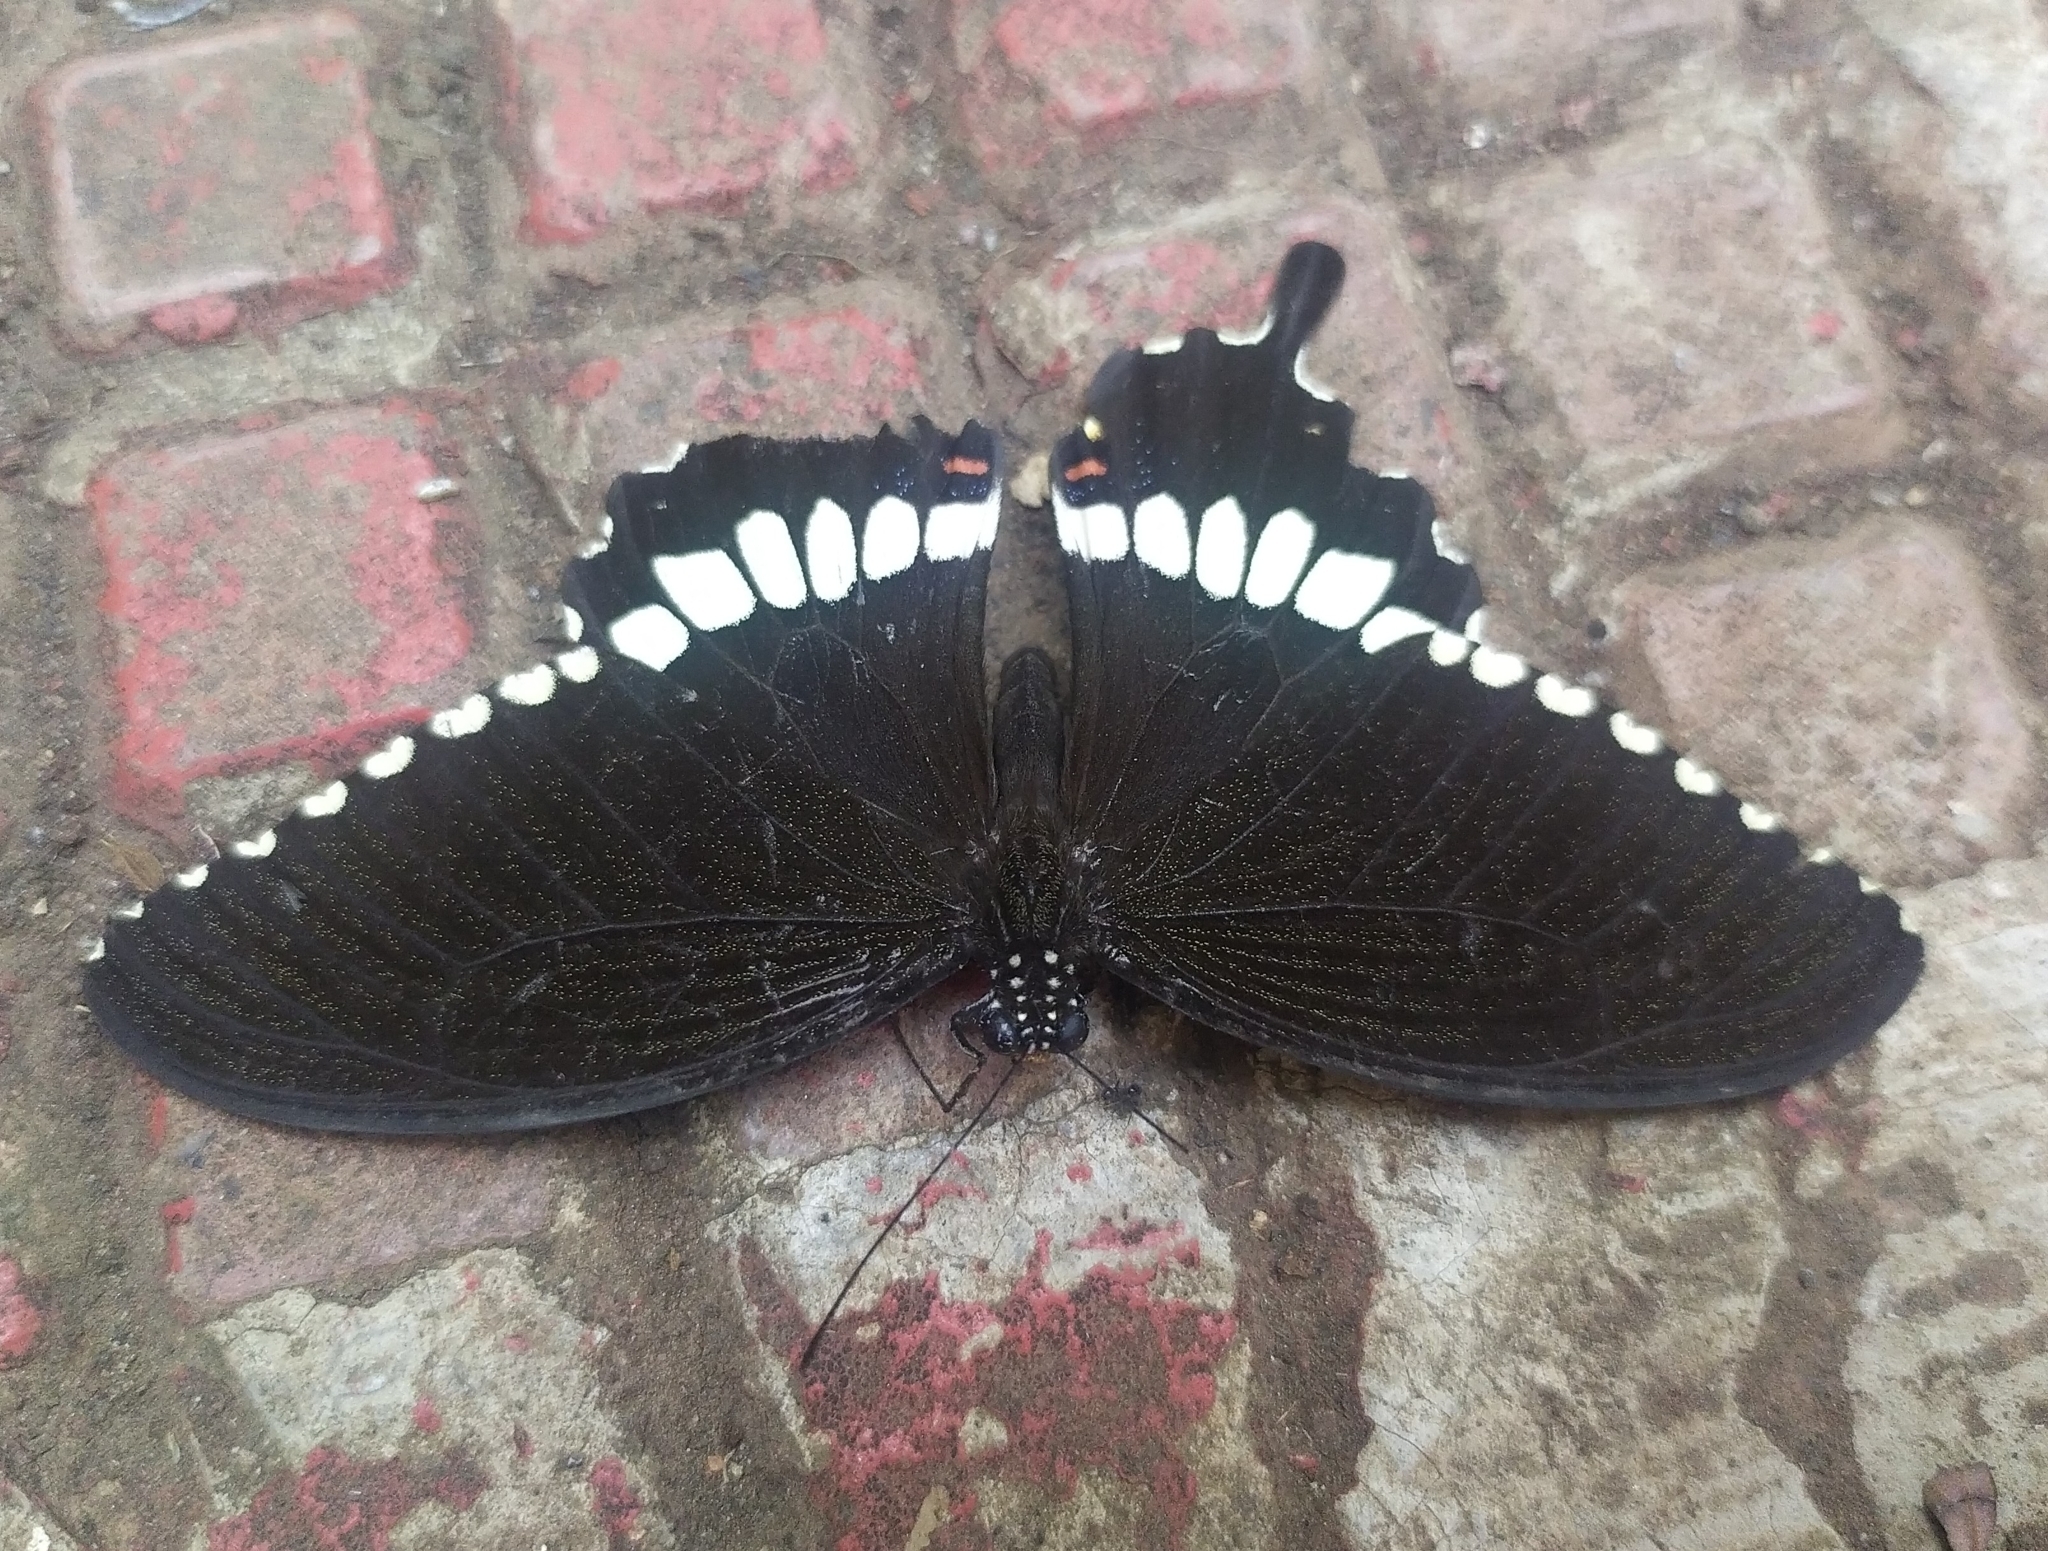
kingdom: Animalia
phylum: Arthropoda
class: Insecta
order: Lepidoptera
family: Papilionidae
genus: Papilio
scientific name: Papilio polytes
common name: Common mormon
